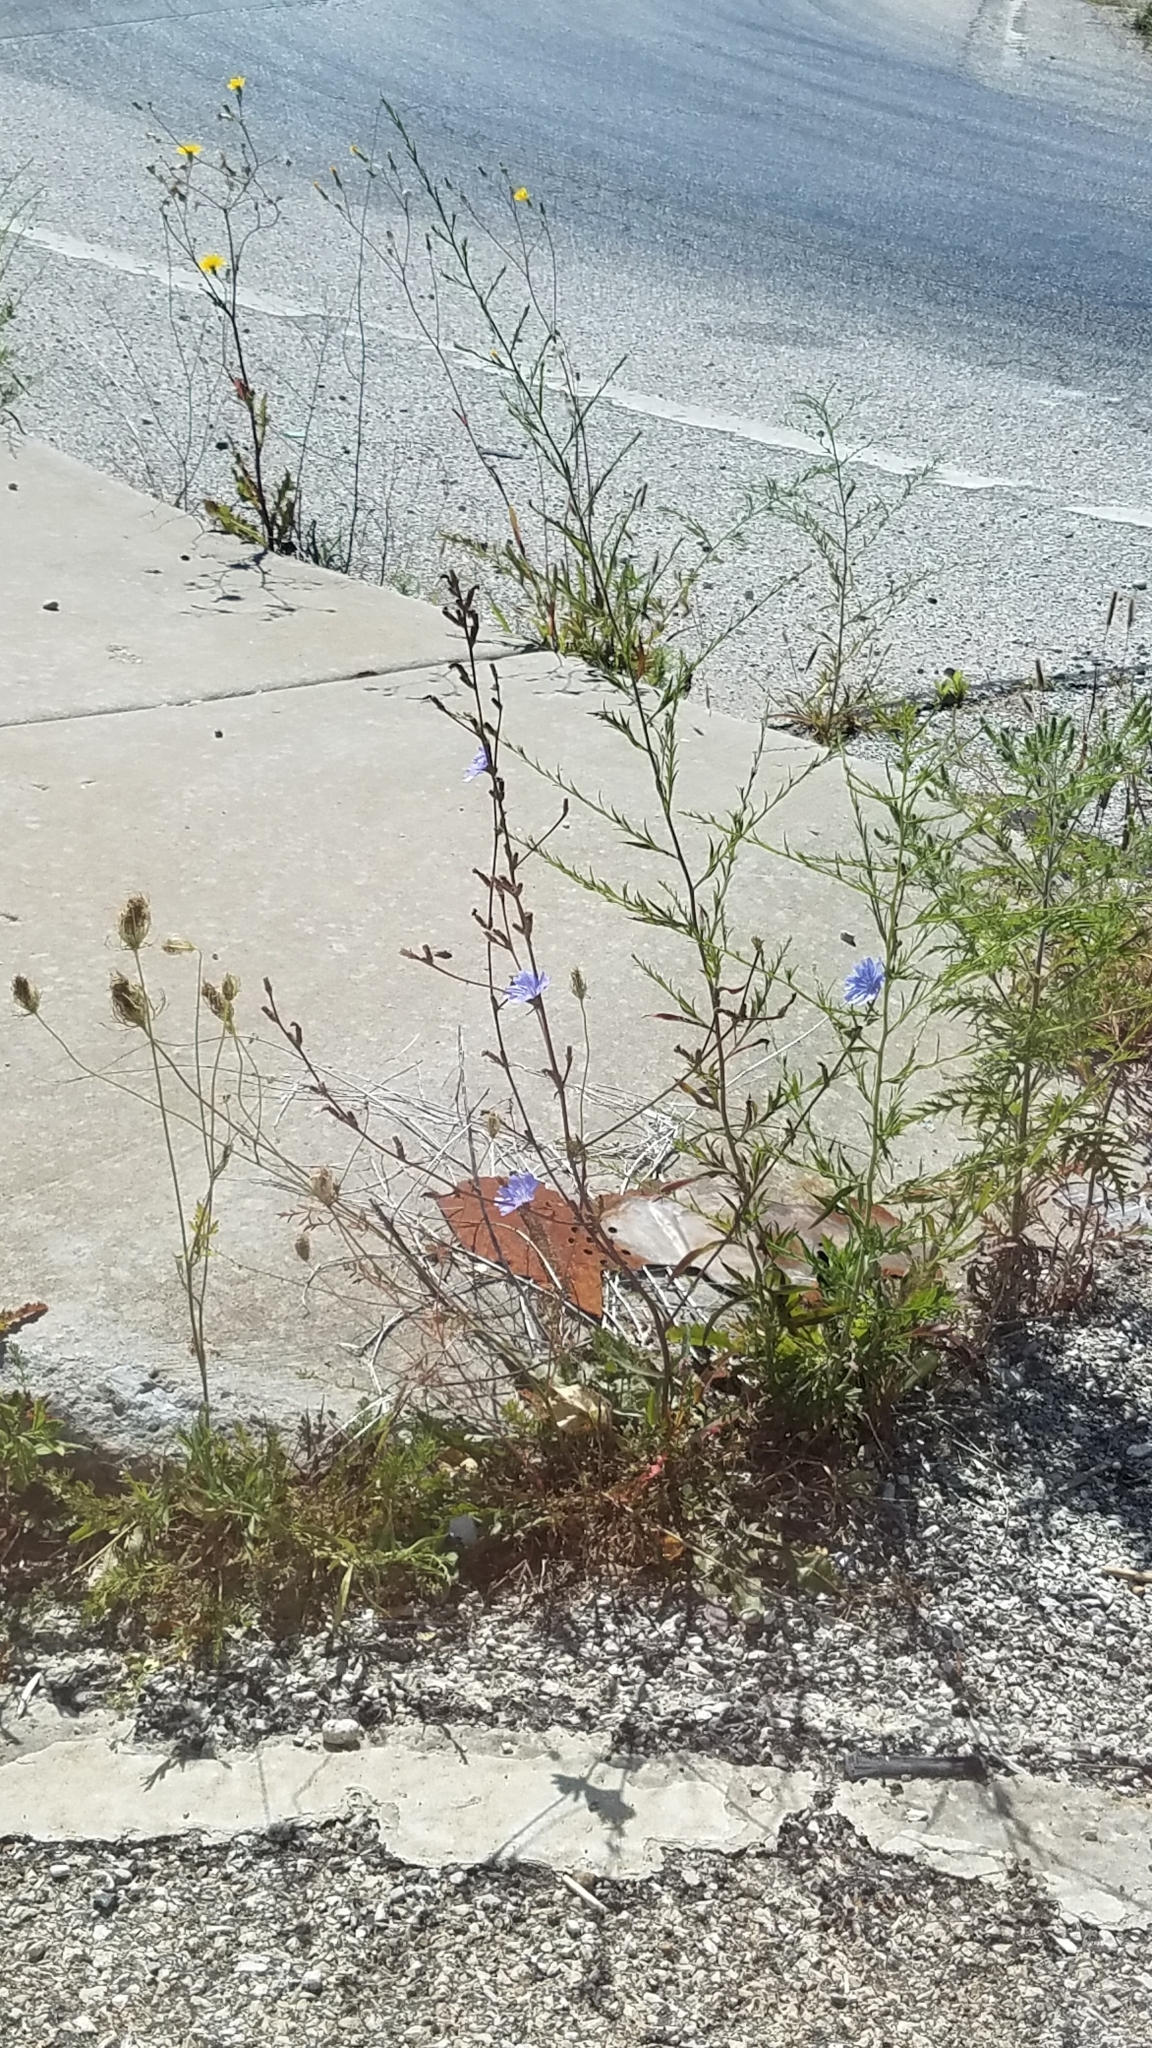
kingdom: Plantae
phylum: Tracheophyta
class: Magnoliopsida
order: Asterales
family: Asteraceae
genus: Cichorium
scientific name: Cichorium intybus
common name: Chicory
